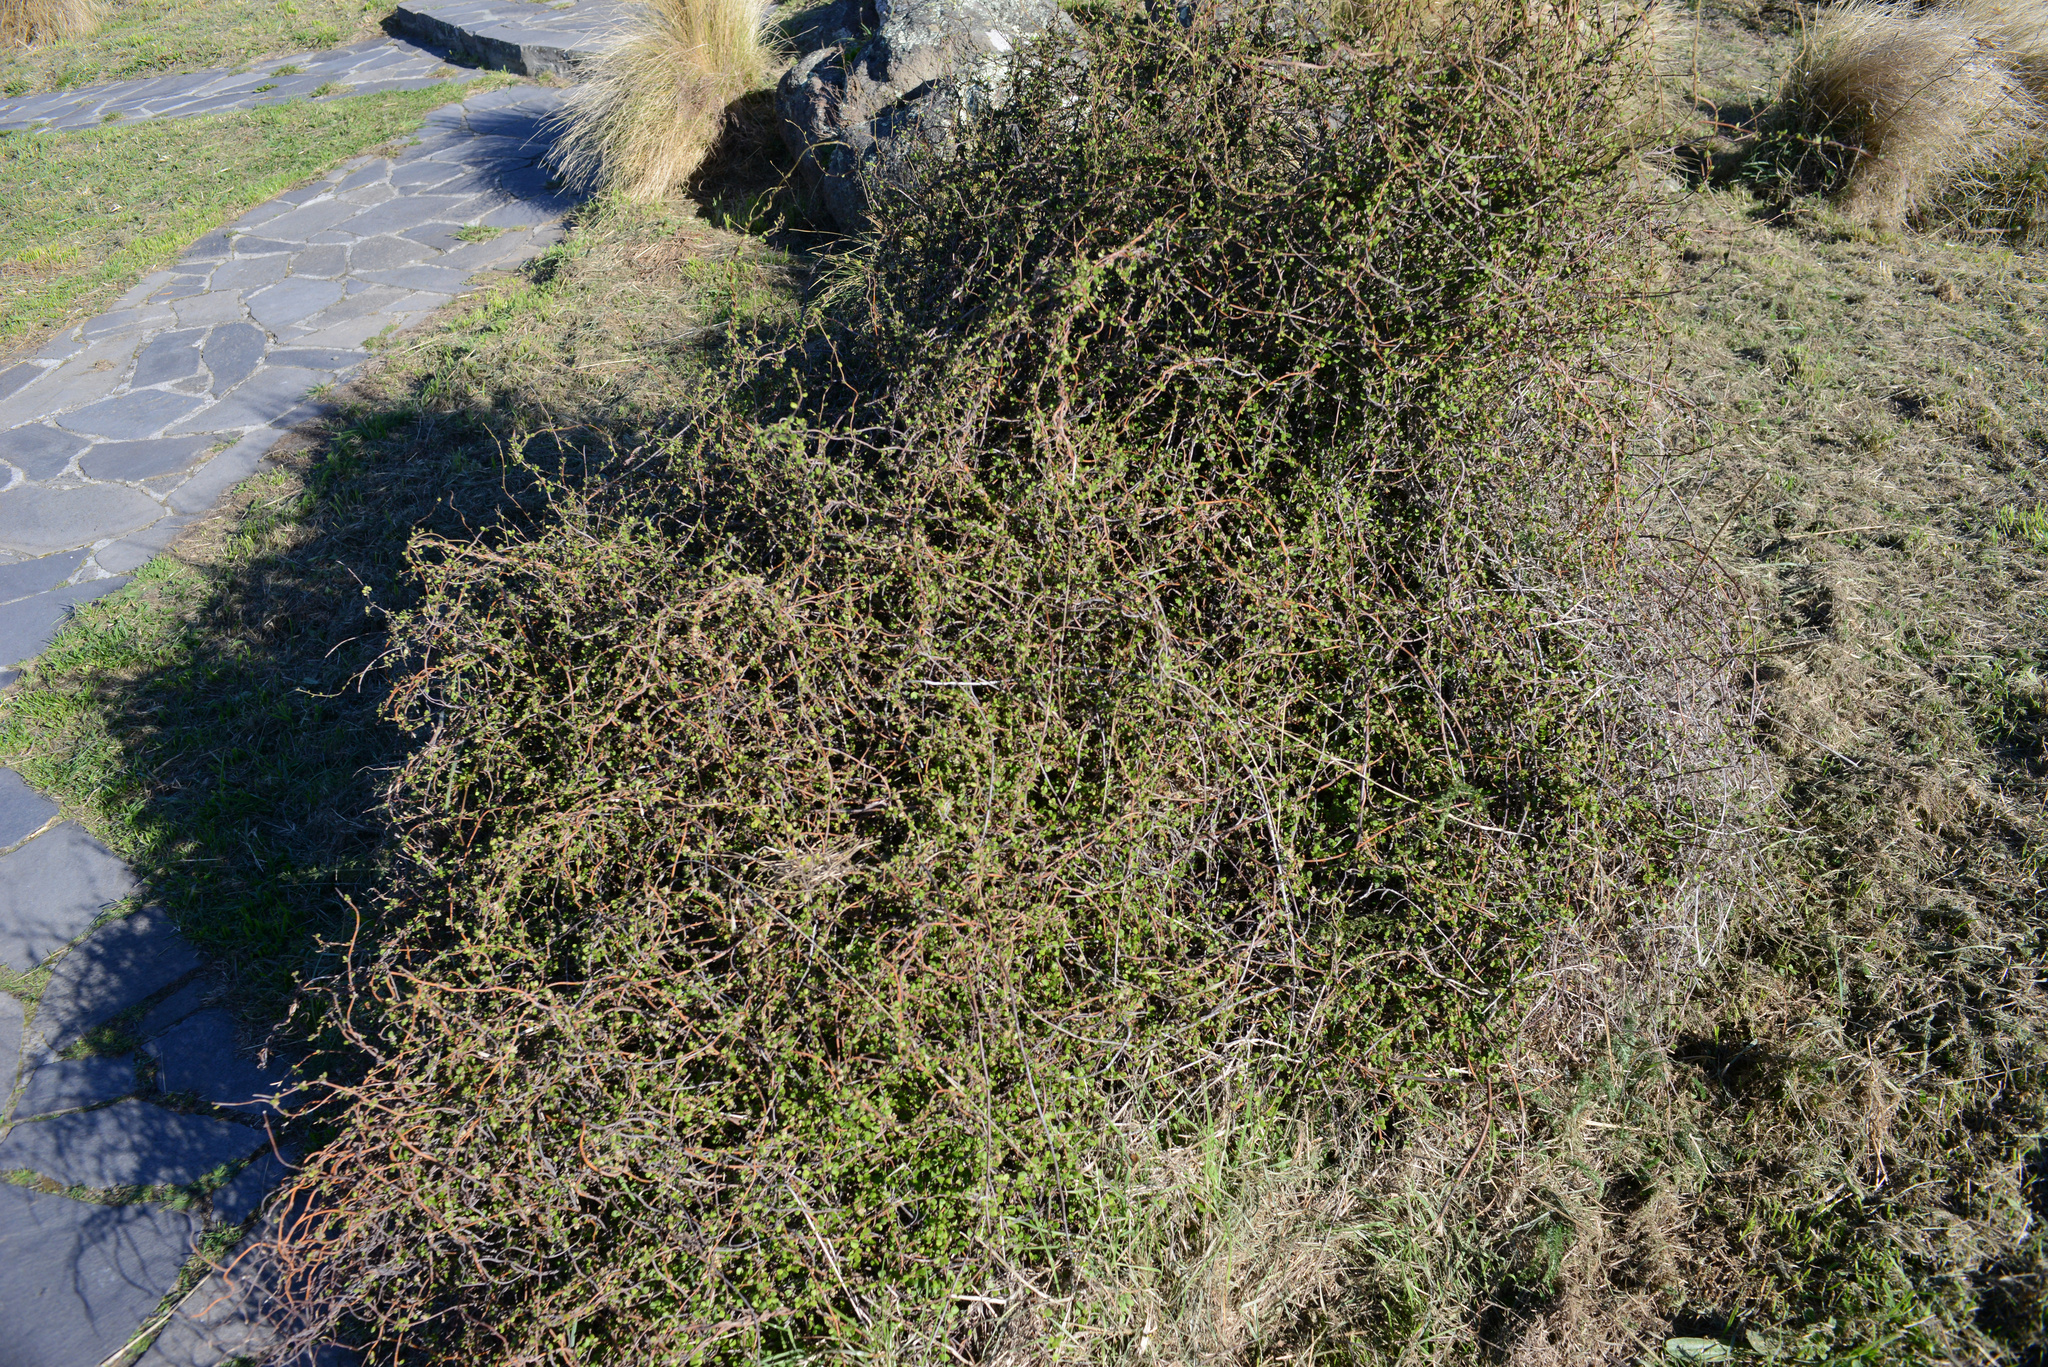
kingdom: Plantae
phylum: Tracheophyta
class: Magnoliopsida
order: Caryophyllales
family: Polygonaceae
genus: Muehlenbeckia
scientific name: Muehlenbeckia complexa
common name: Wireplant
